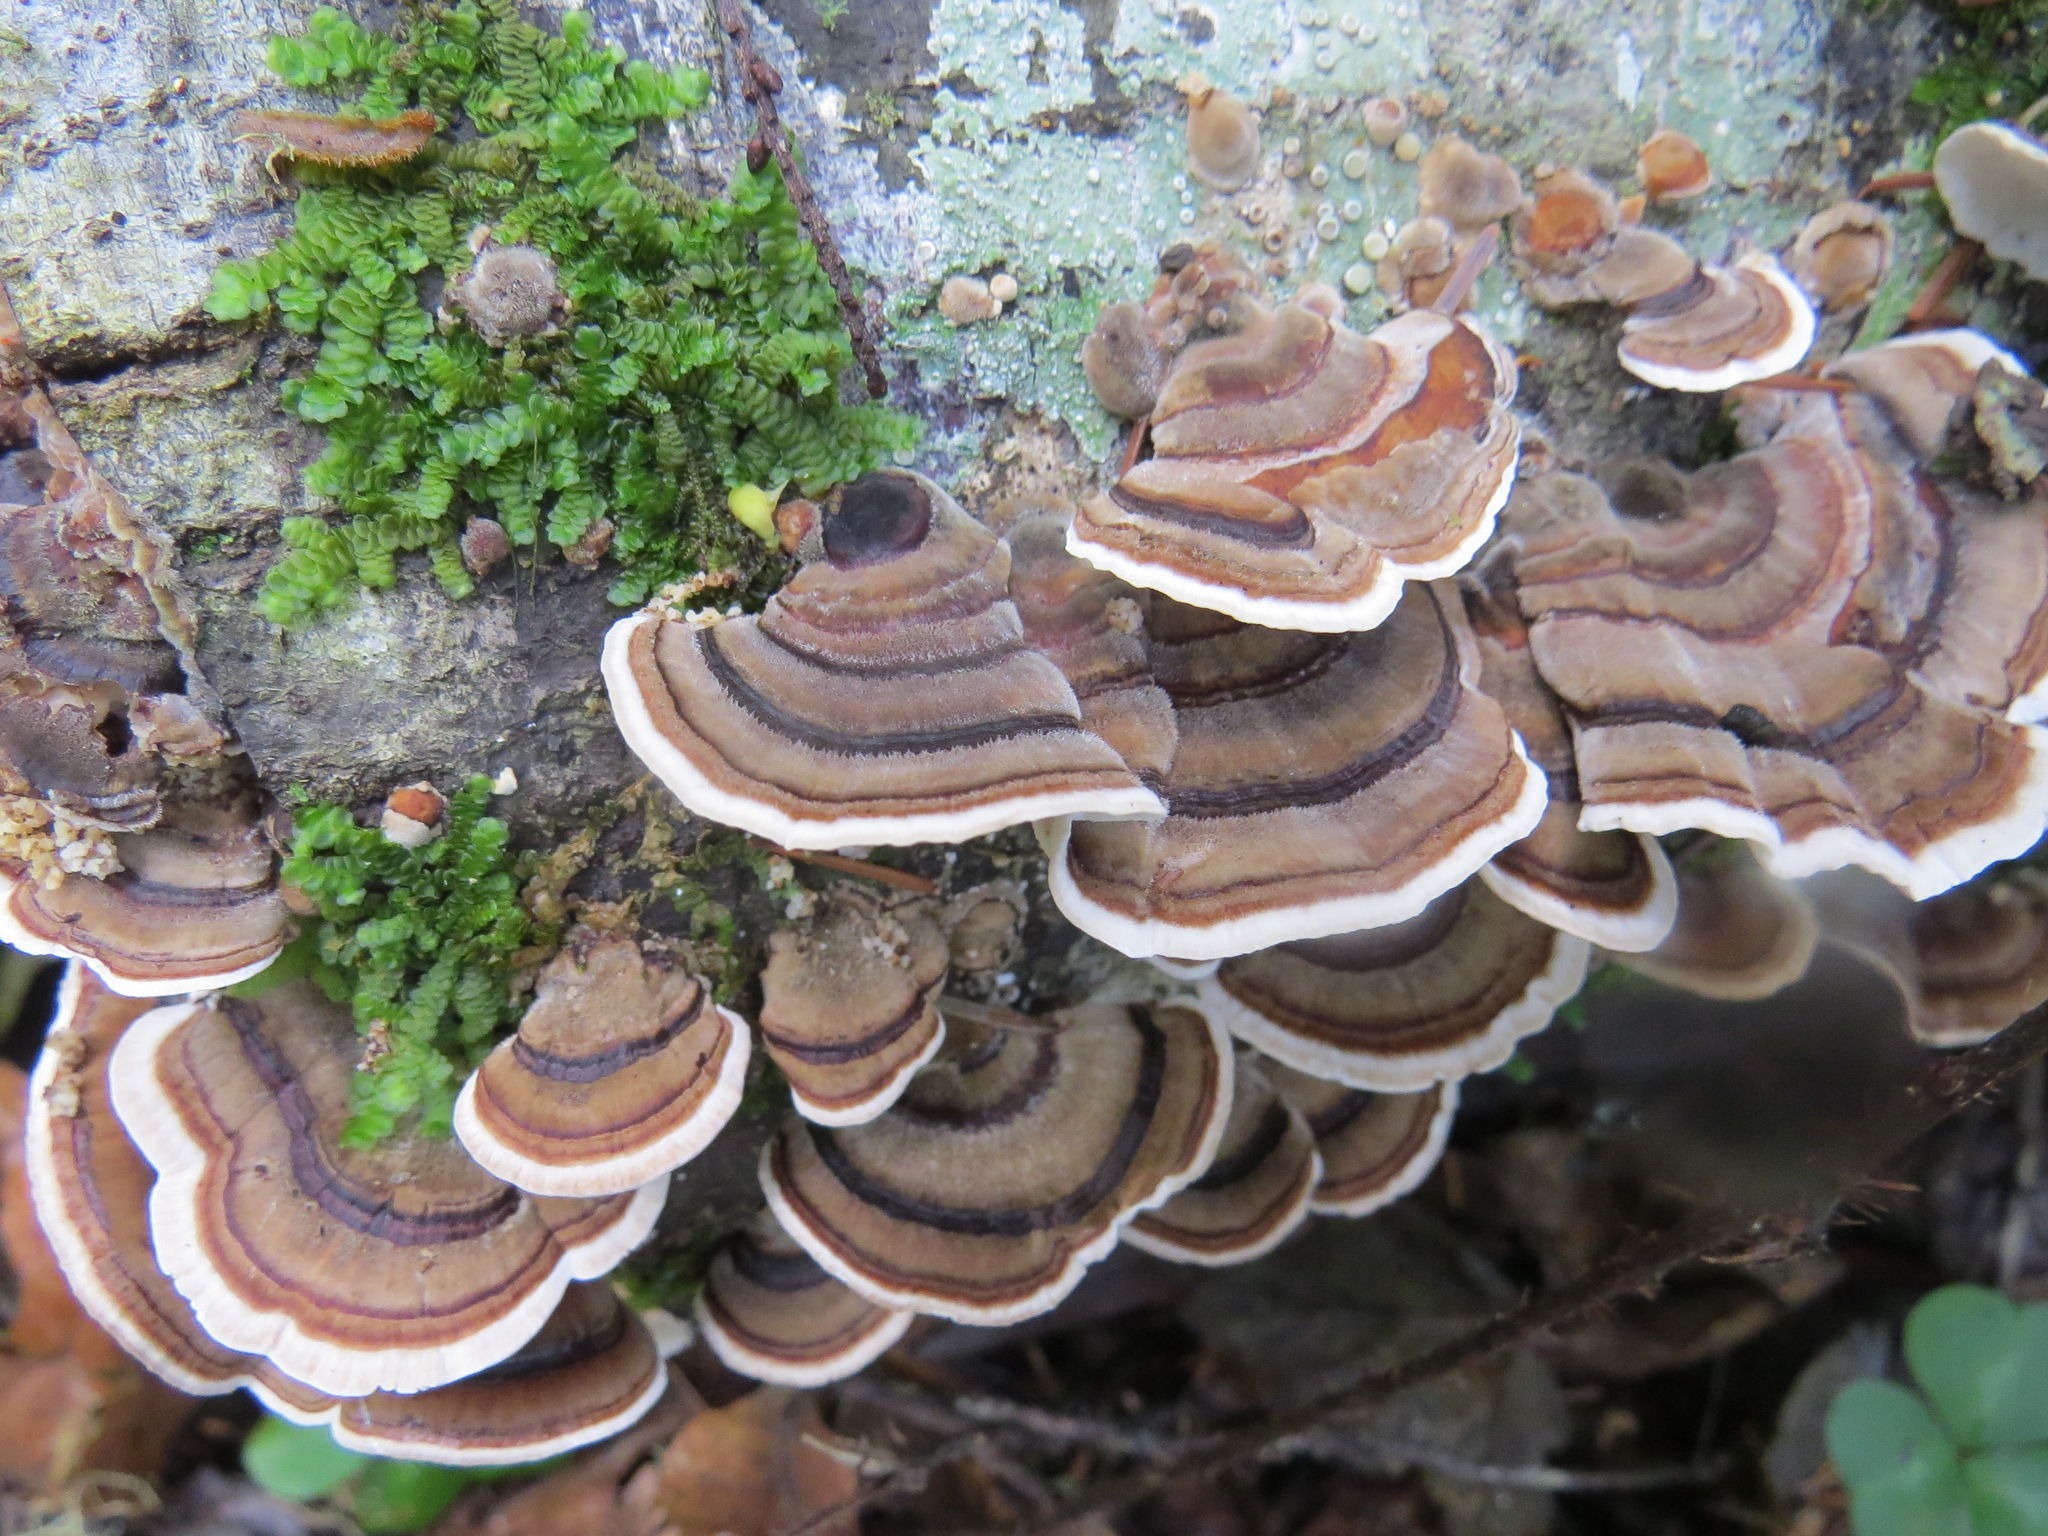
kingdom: Fungi
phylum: Basidiomycota
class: Agaricomycetes
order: Polyporales
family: Polyporaceae
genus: Trametes
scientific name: Trametes versicolor
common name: Turkeytail
